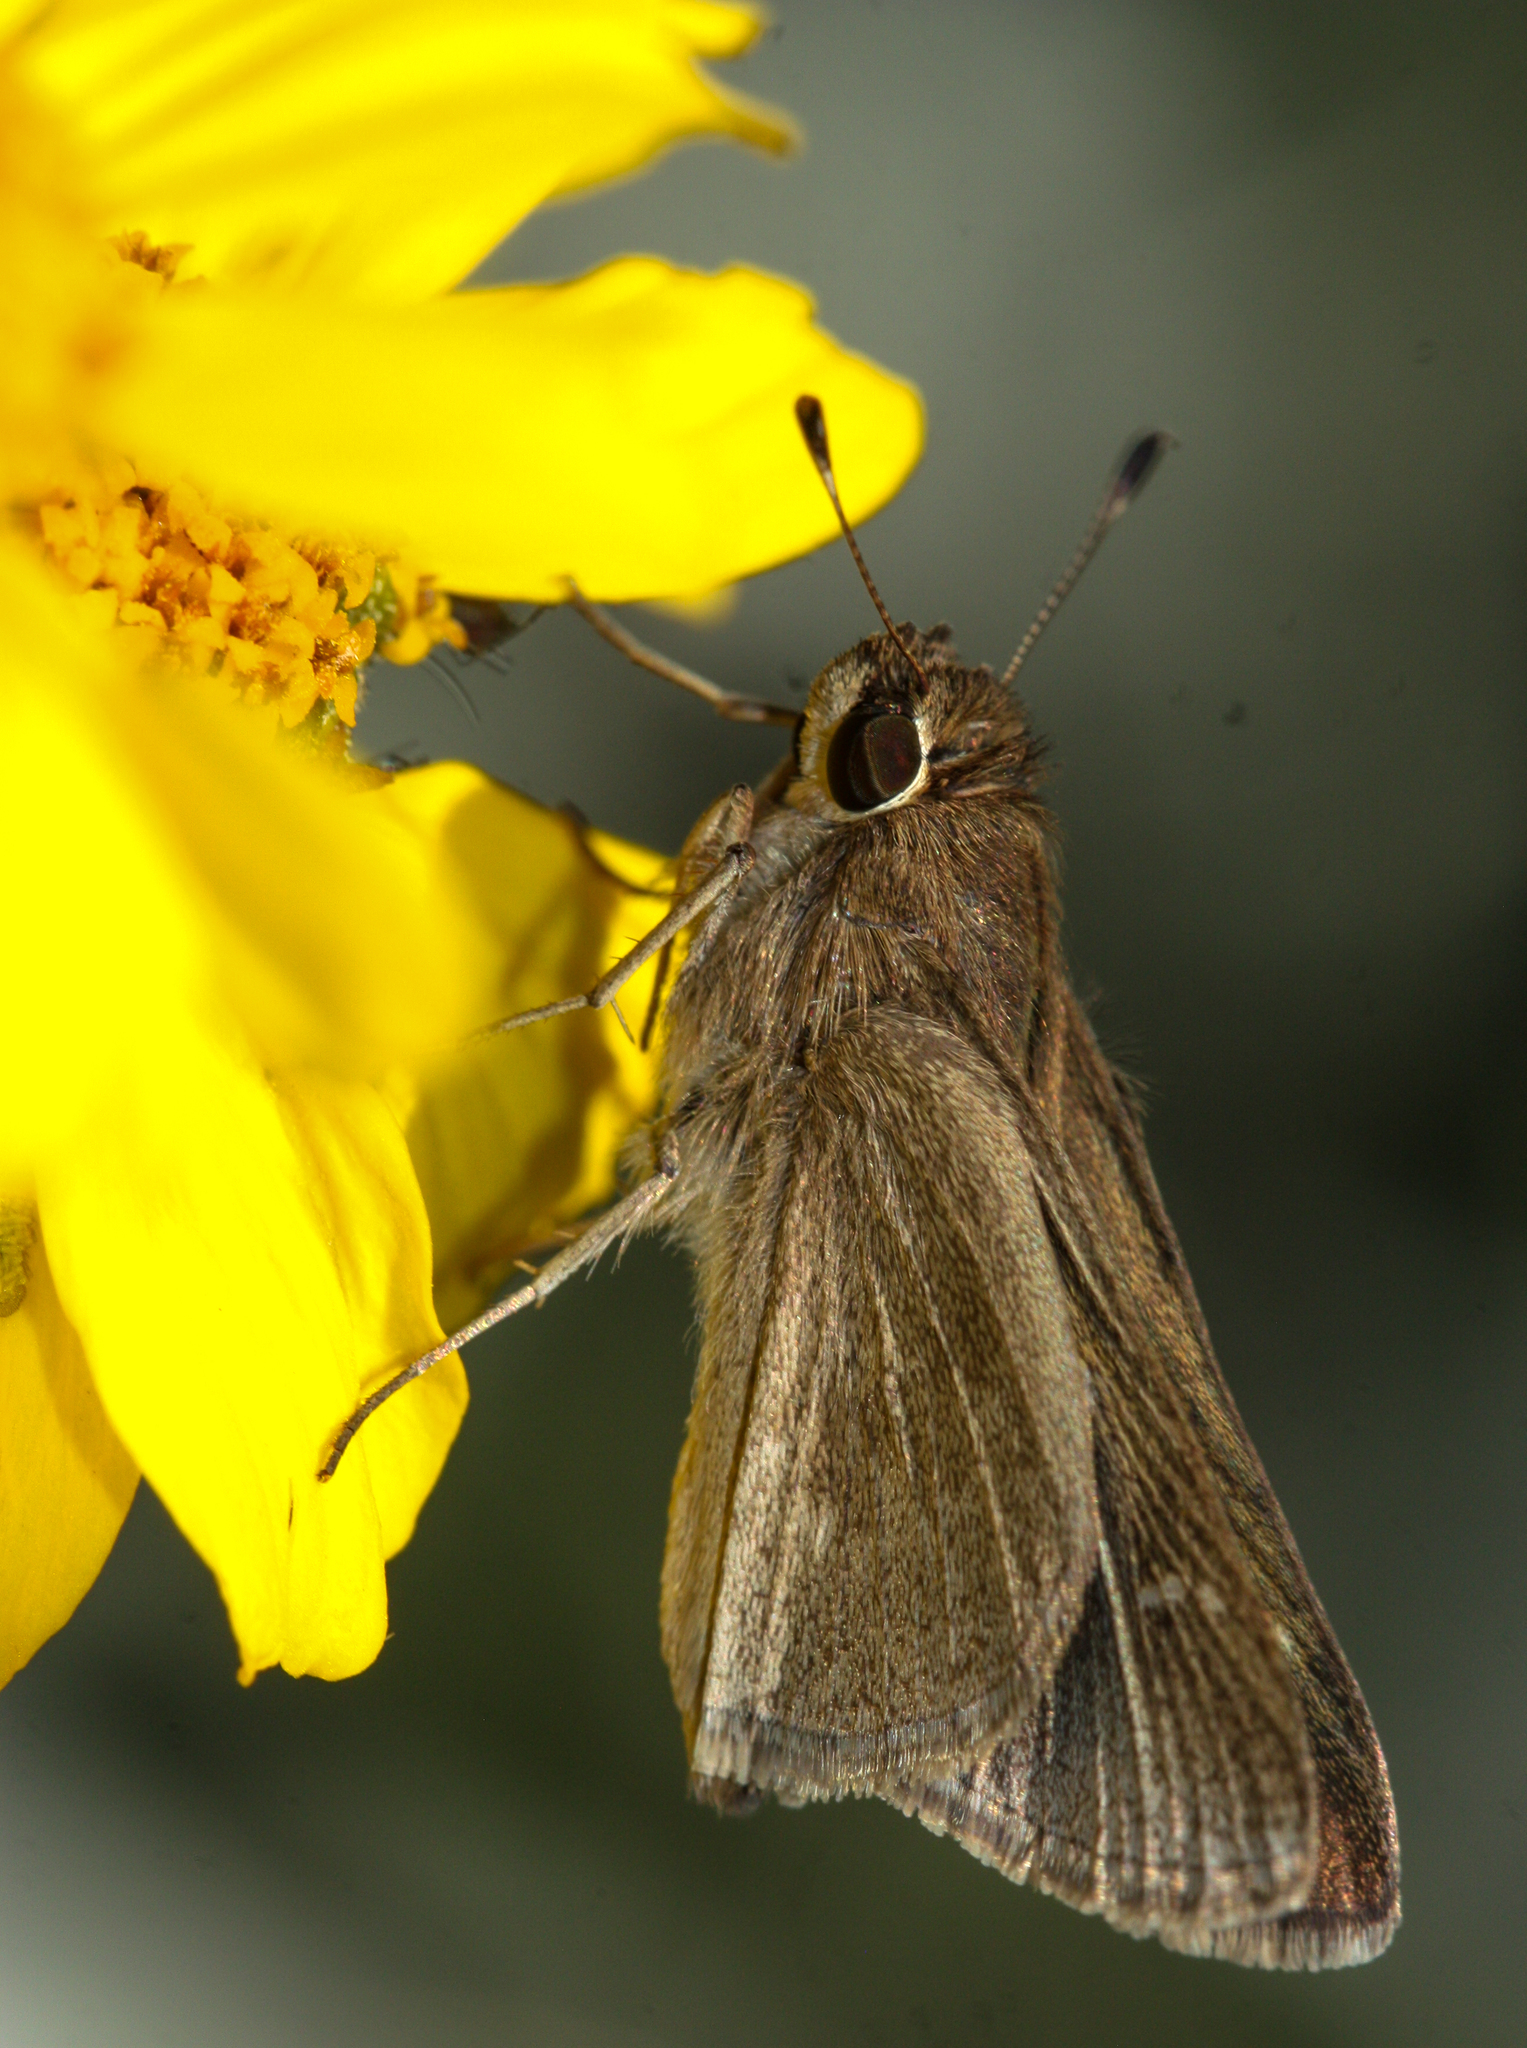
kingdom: Animalia
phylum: Arthropoda
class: Insecta
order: Lepidoptera
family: Hesperiidae
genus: Lerodea
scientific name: Lerodea eufala
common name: Eufala skipper
